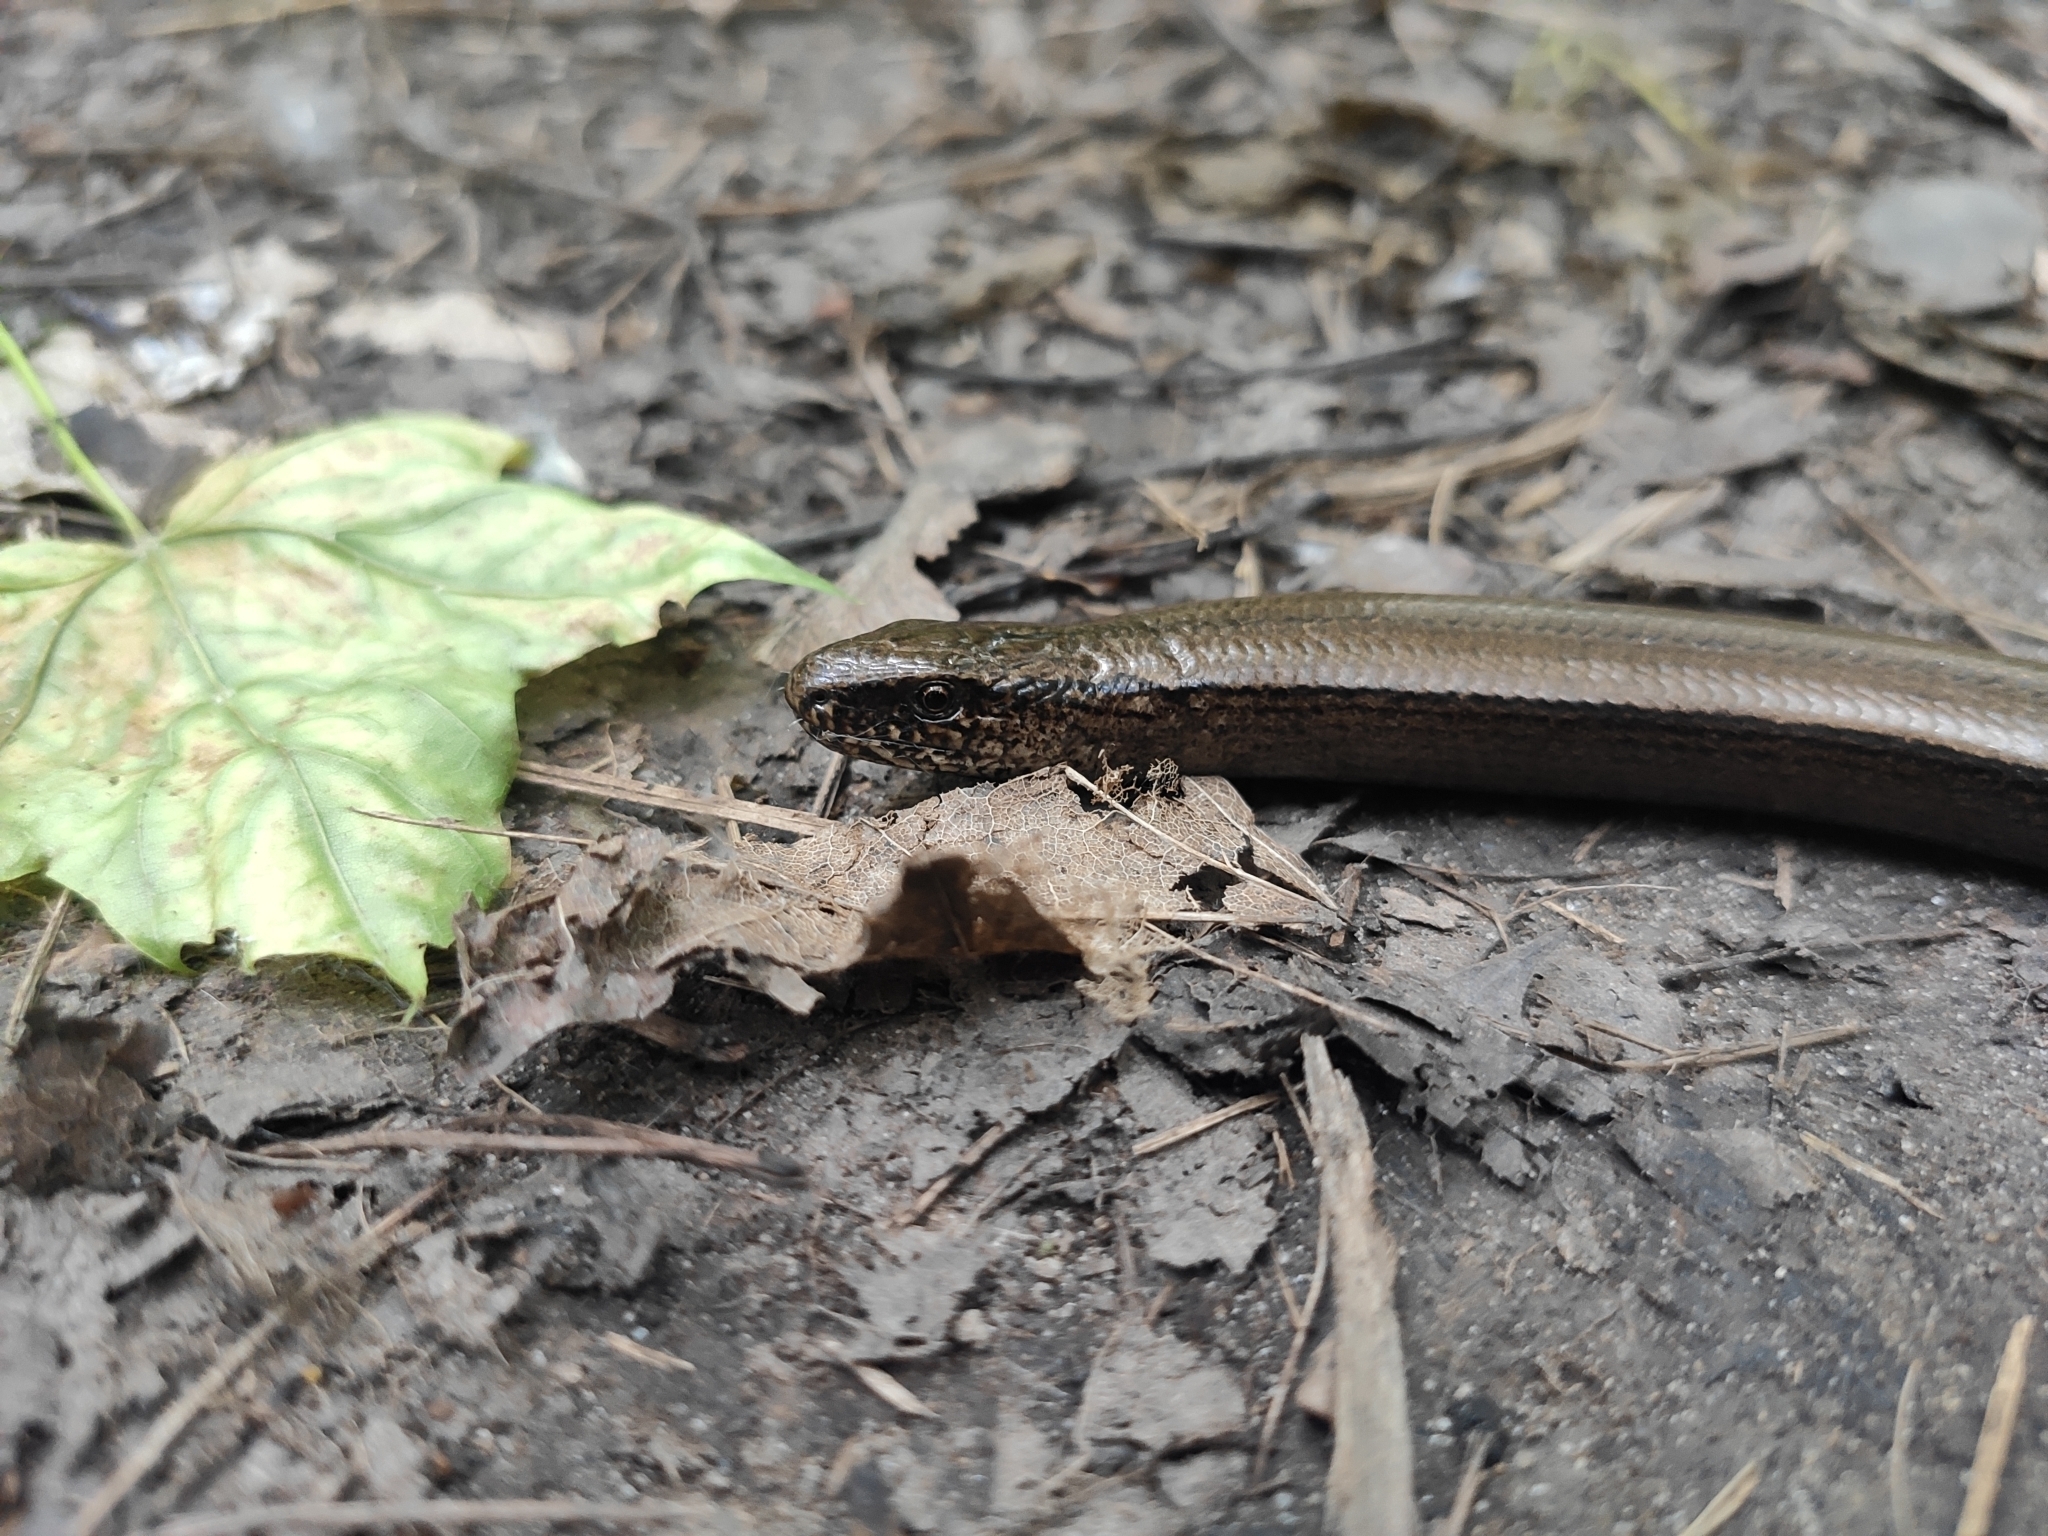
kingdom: Animalia
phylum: Chordata
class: Squamata
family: Anguidae
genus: Anguis
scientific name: Anguis fragilis
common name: Slow worm
